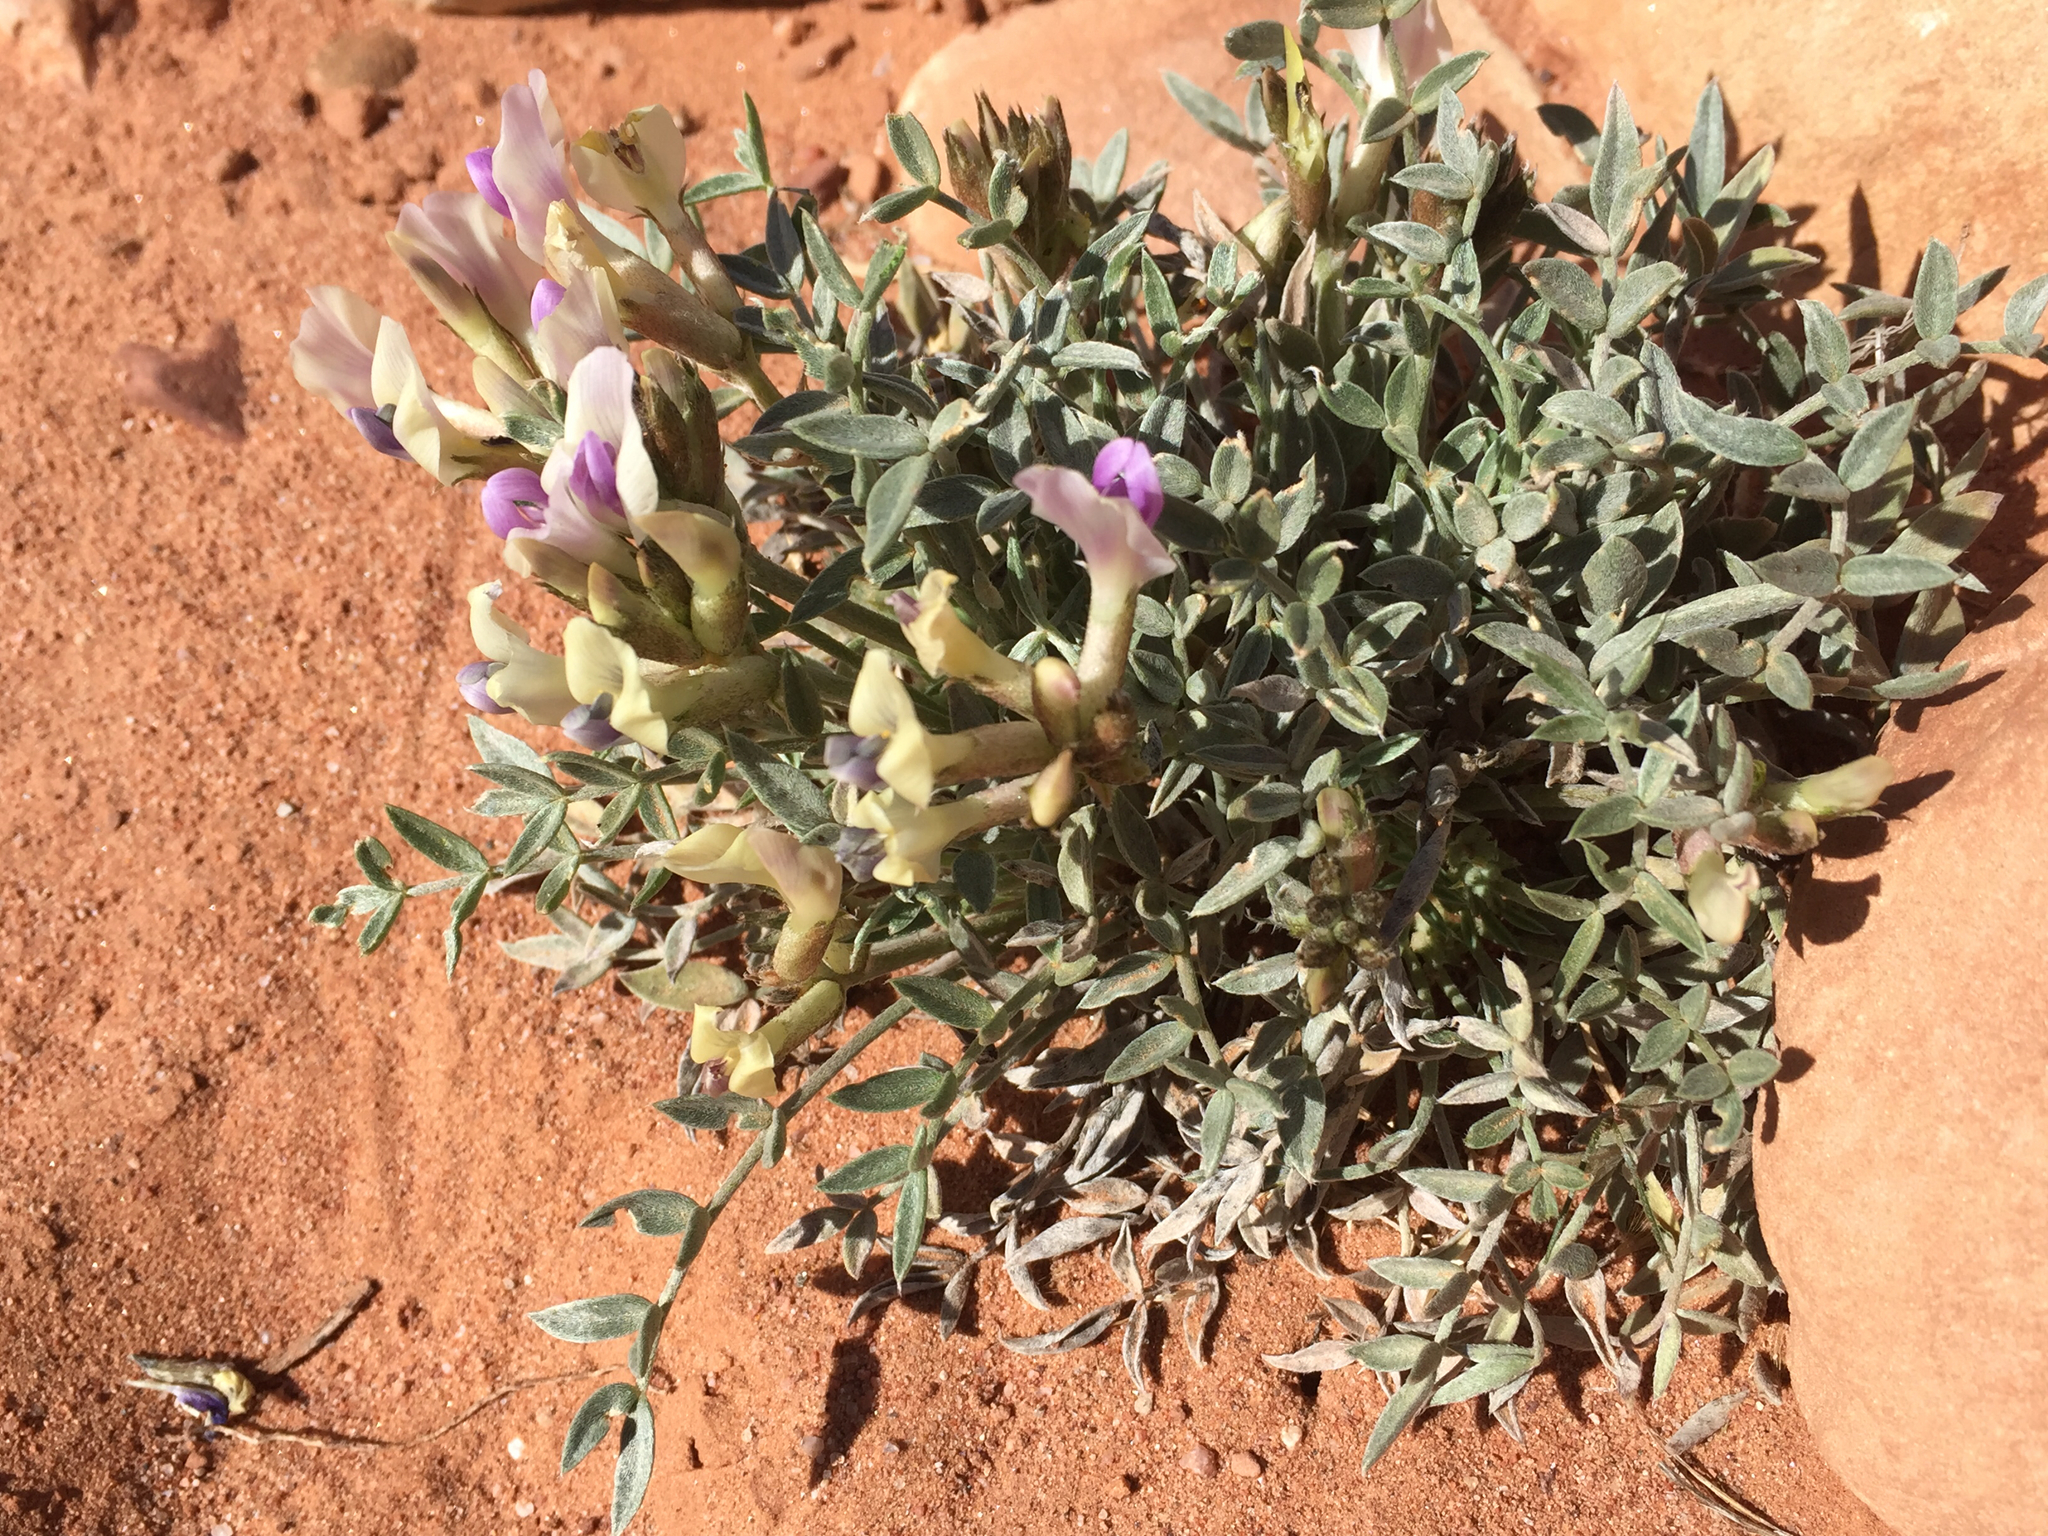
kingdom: Plantae
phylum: Tracheophyta
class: Magnoliopsida
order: Fabales
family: Fabaceae
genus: Astragalus
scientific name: Astragalus piscator
